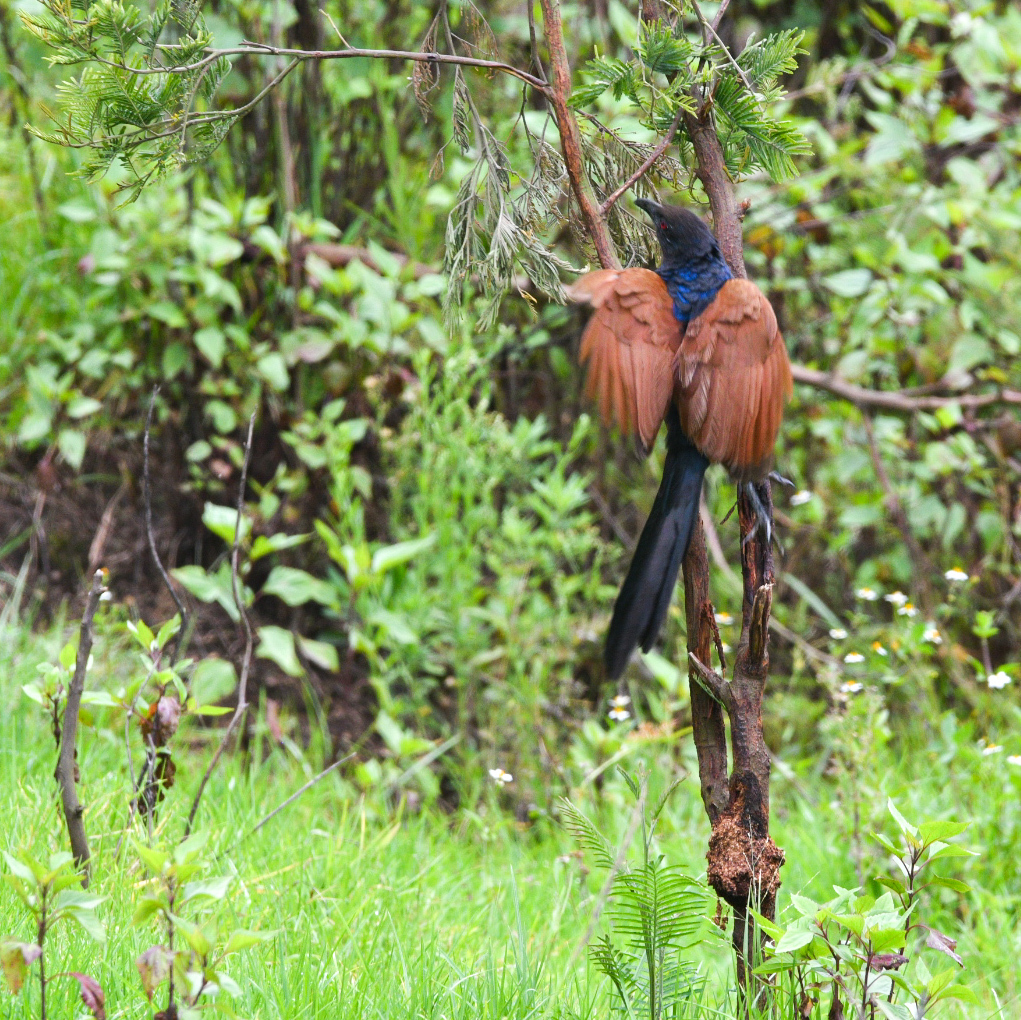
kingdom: Animalia
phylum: Chordata
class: Aves
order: Cuculiformes
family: Cuculidae
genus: Centropus
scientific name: Centropus sinensis
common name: Greater coucal
